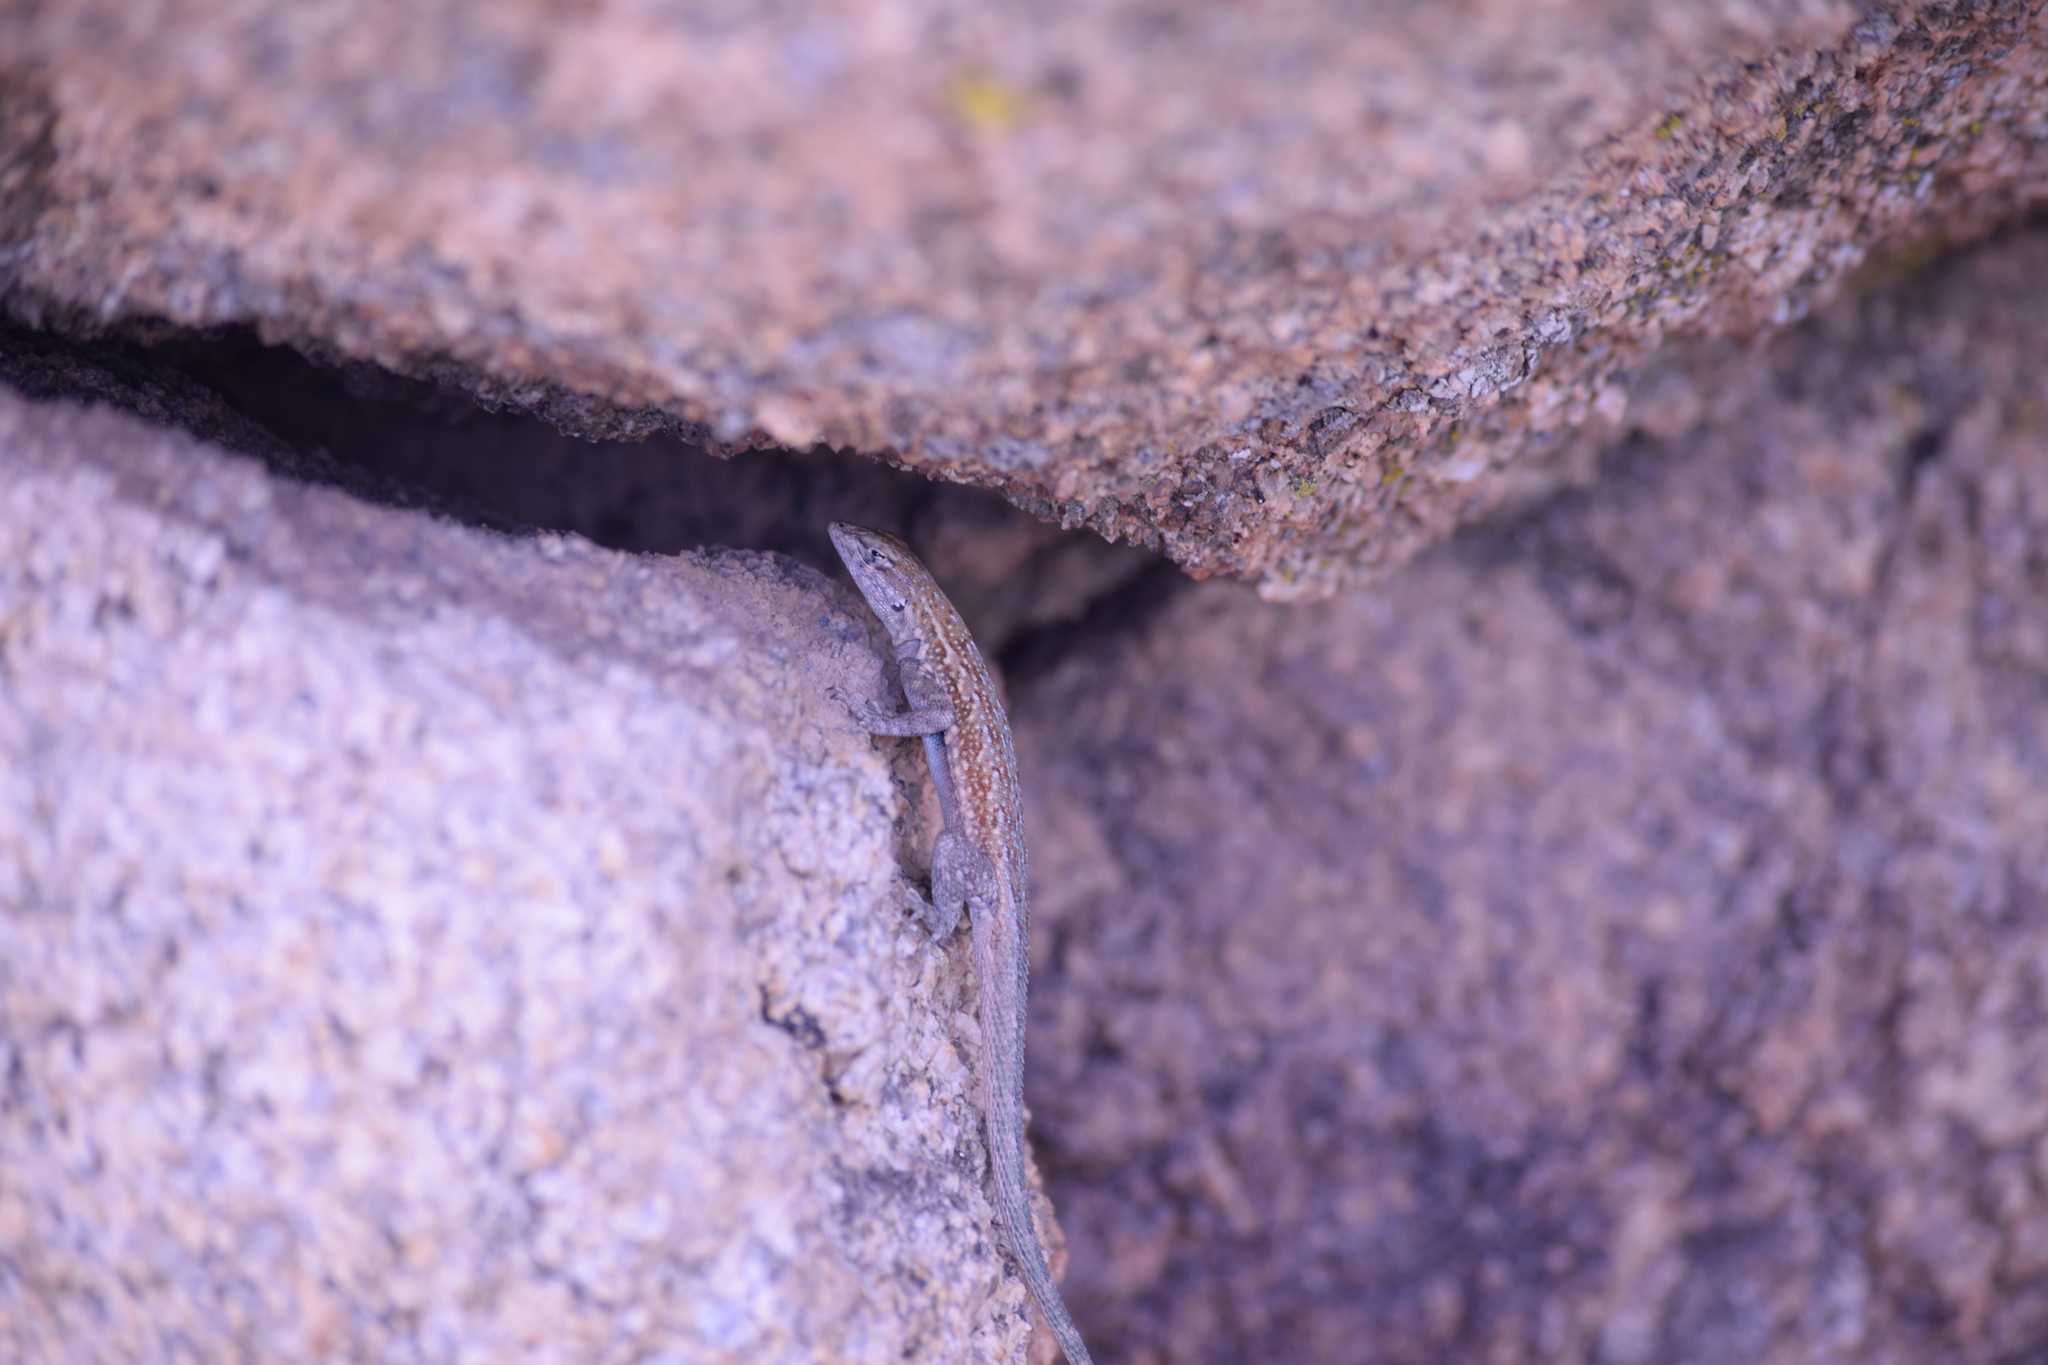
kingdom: Animalia
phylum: Chordata
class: Squamata
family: Phrynosomatidae
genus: Uta
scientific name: Uta stansburiana
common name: Side-blotched lizard
